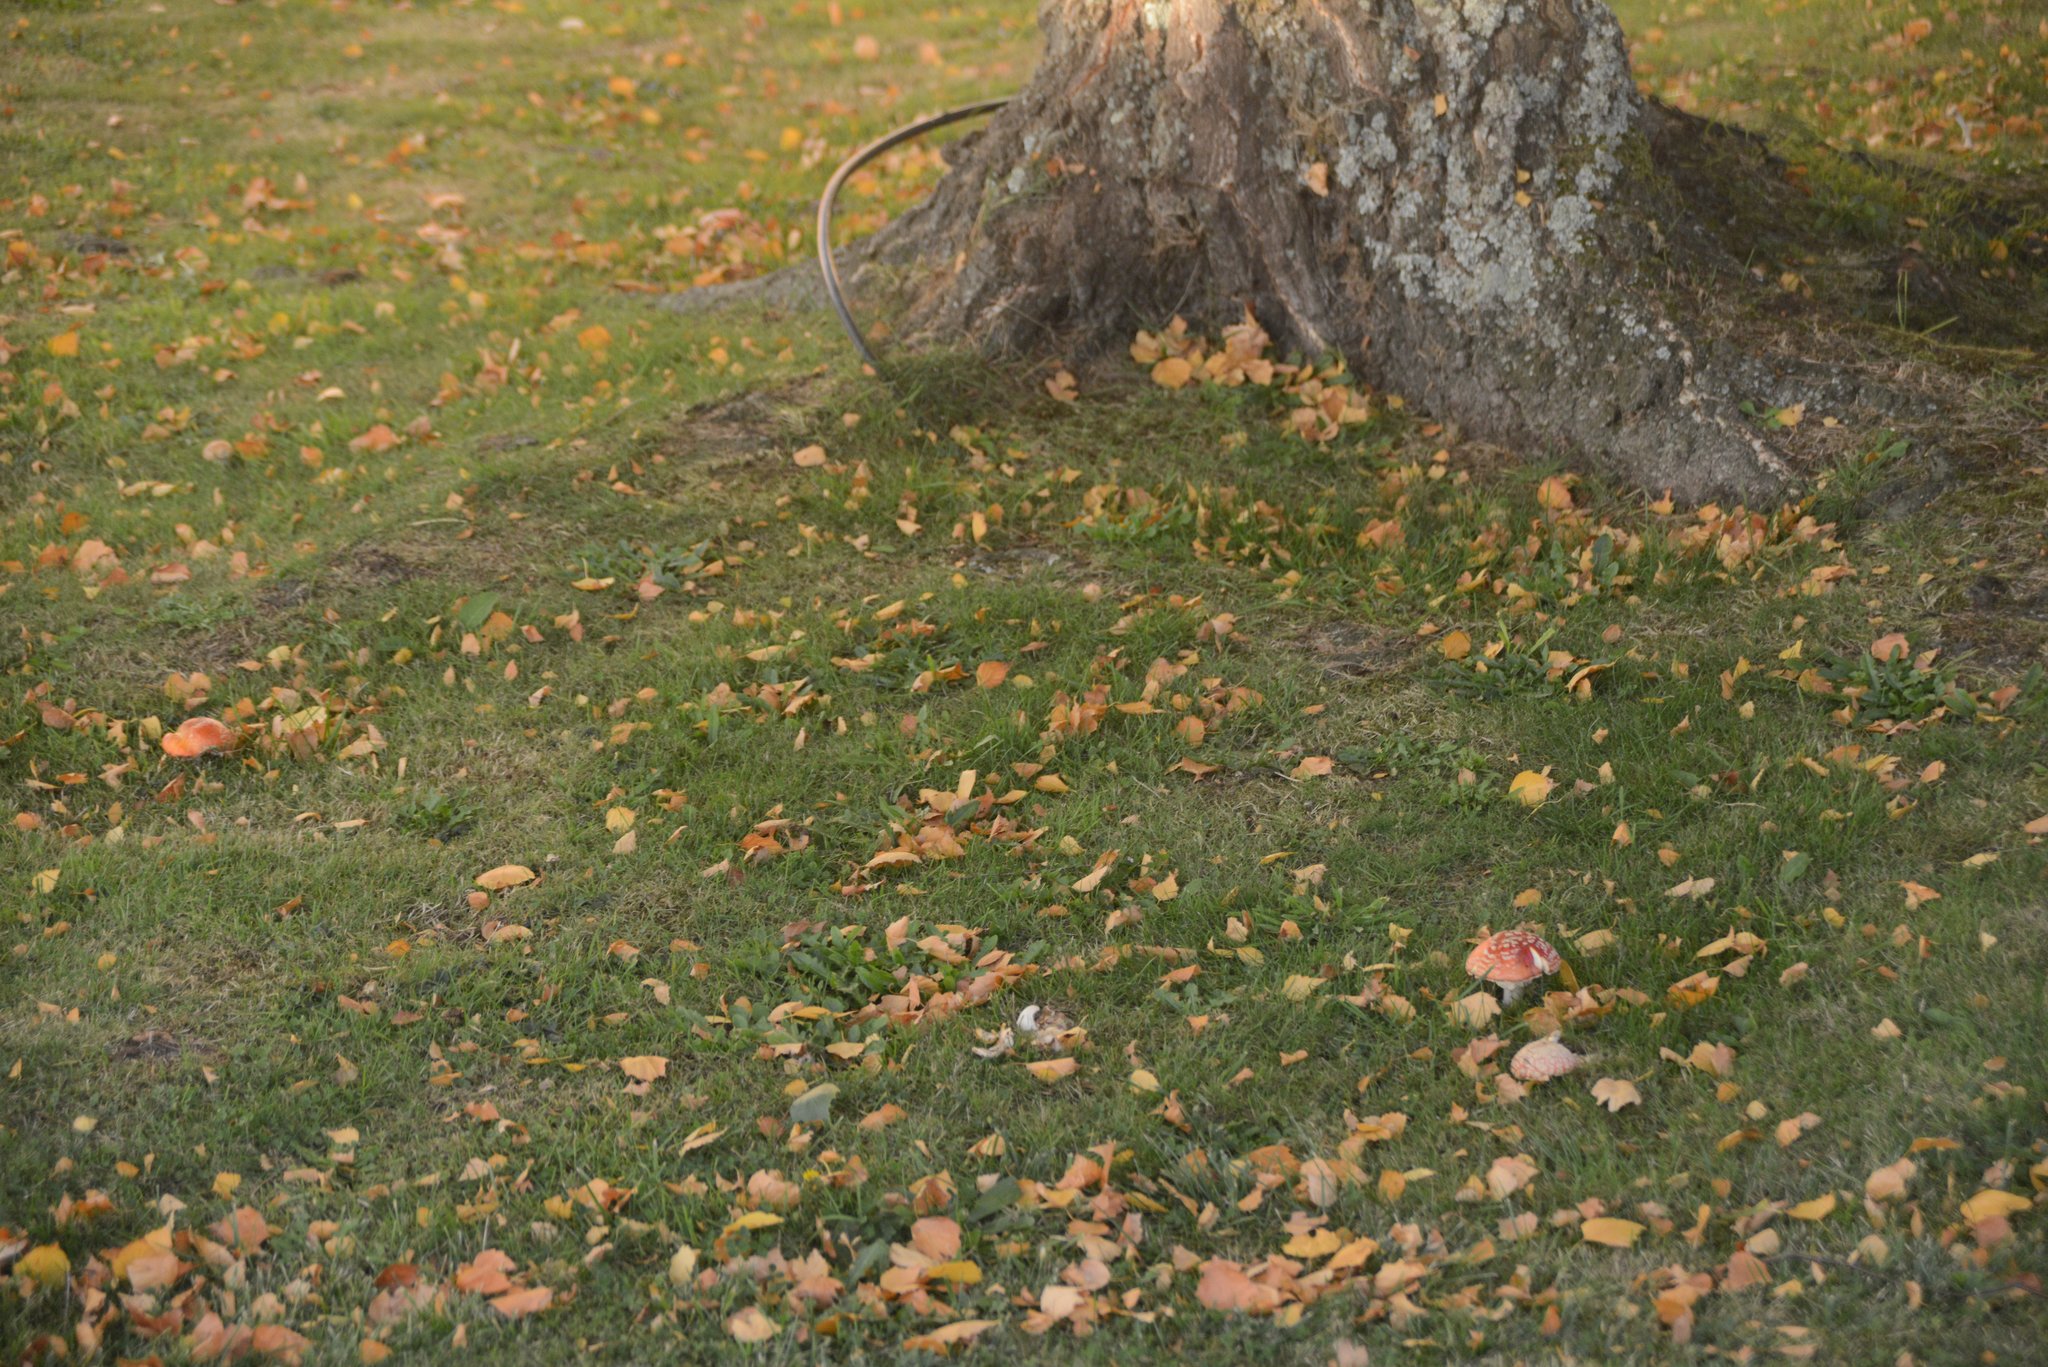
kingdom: Fungi
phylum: Basidiomycota
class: Agaricomycetes
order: Agaricales
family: Amanitaceae
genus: Amanita
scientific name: Amanita muscaria
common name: Fly agaric
